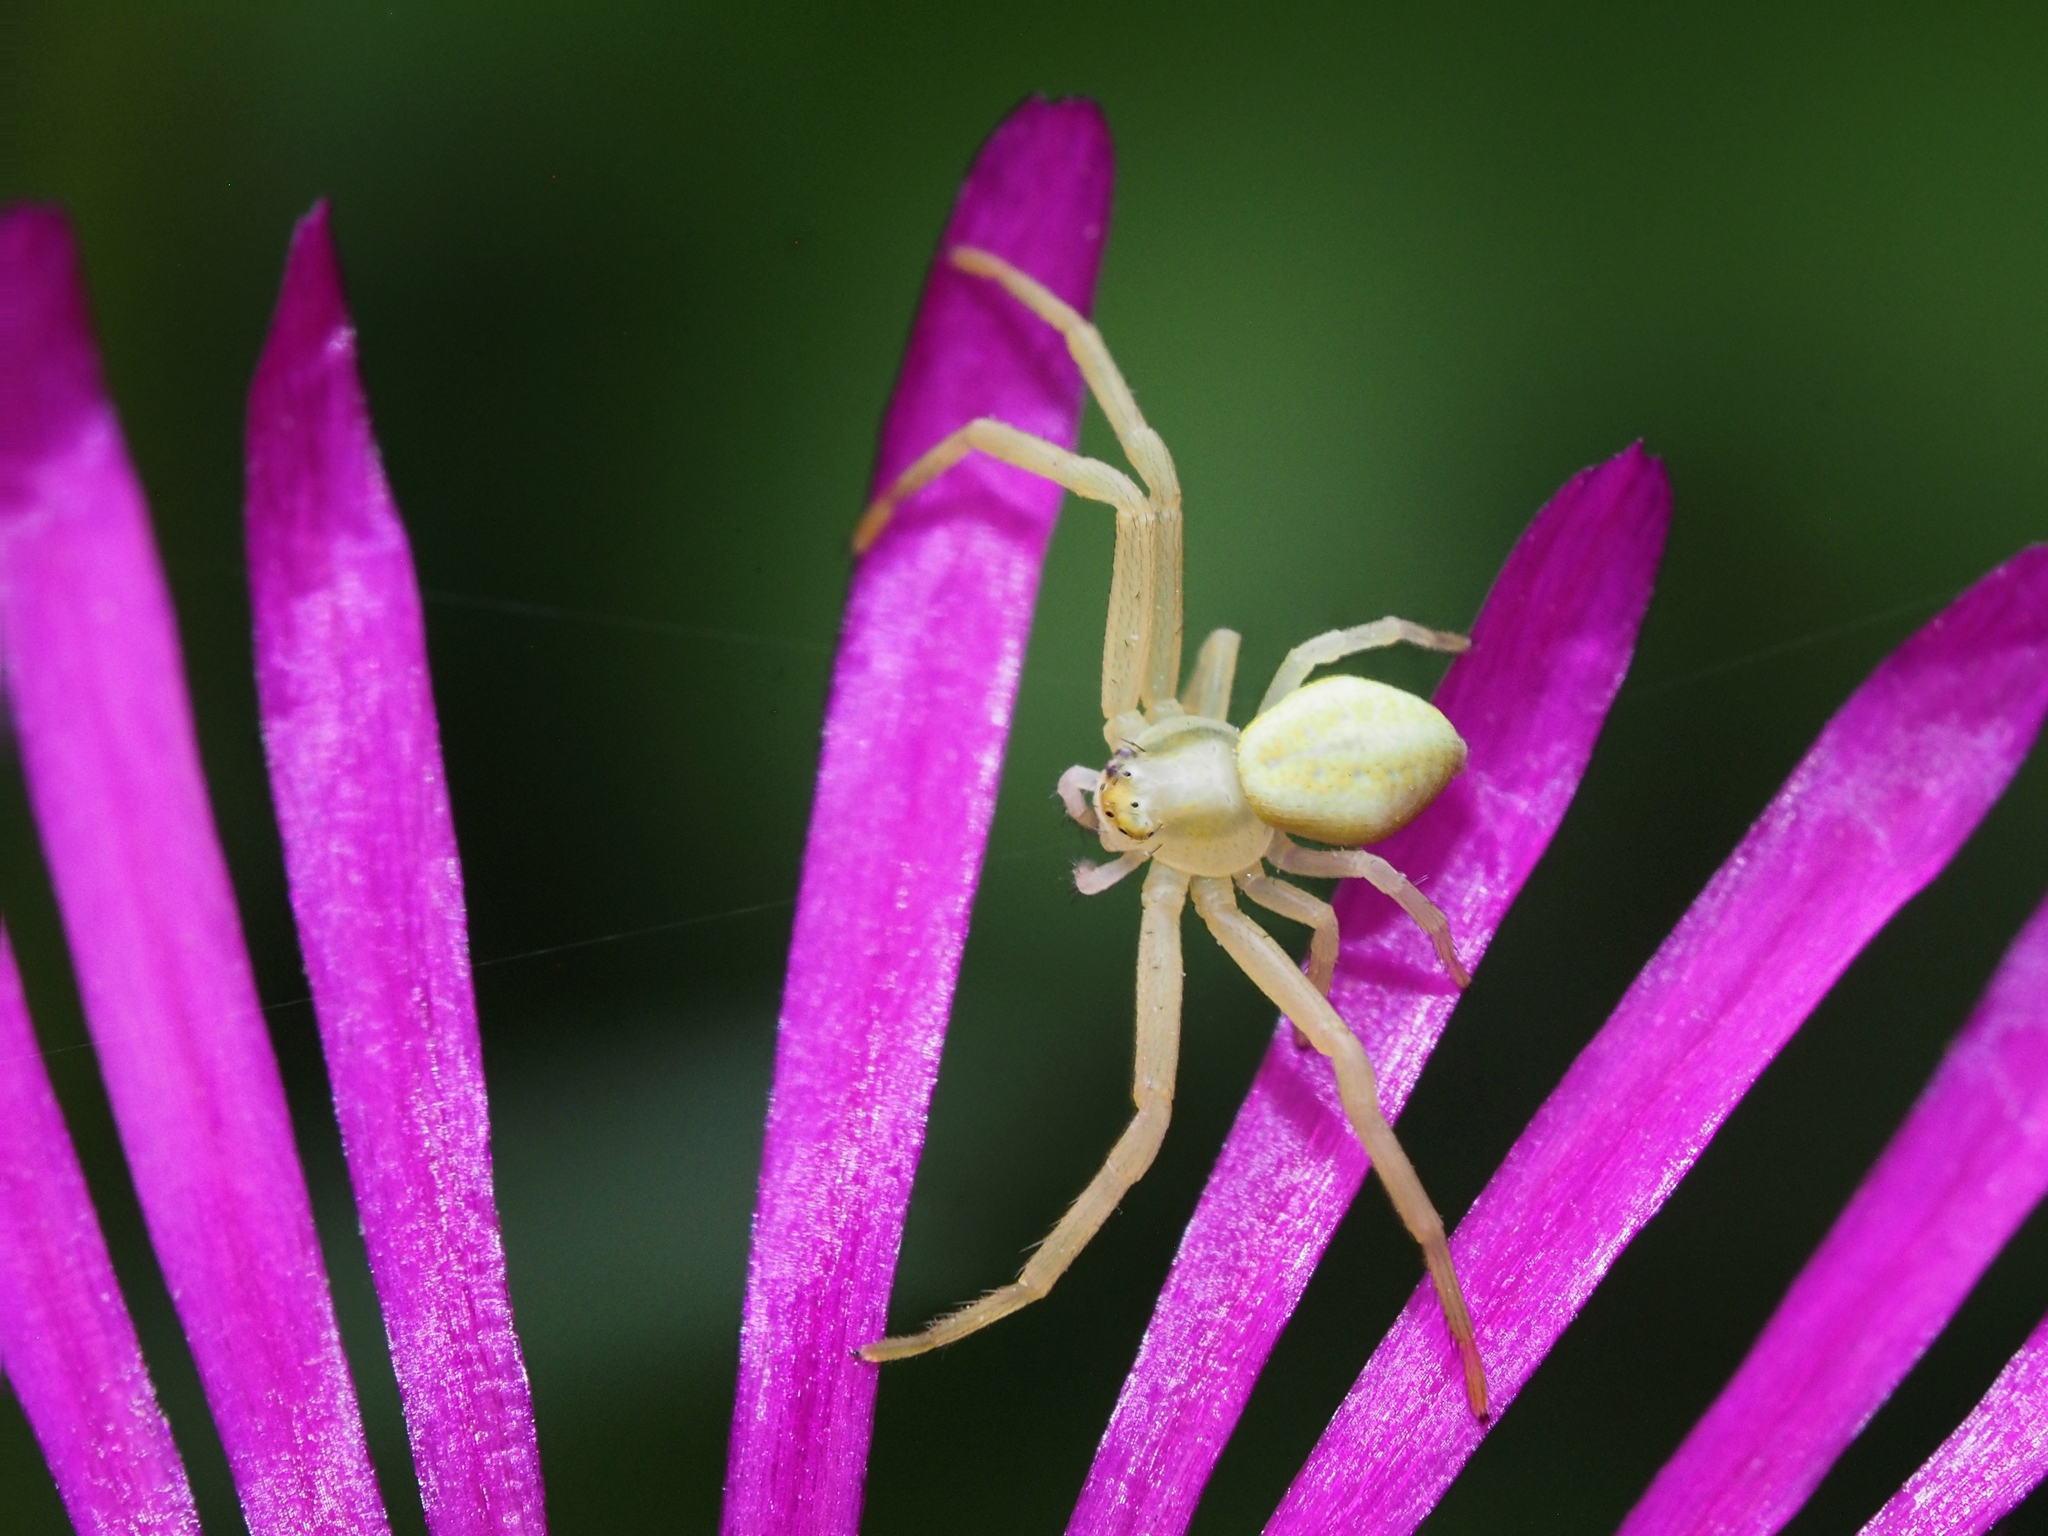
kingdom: Animalia
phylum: Arthropoda
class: Arachnida
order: Araneae
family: Thomisidae
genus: Misumena
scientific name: Misumena vatia
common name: Goldenrod crab spider
